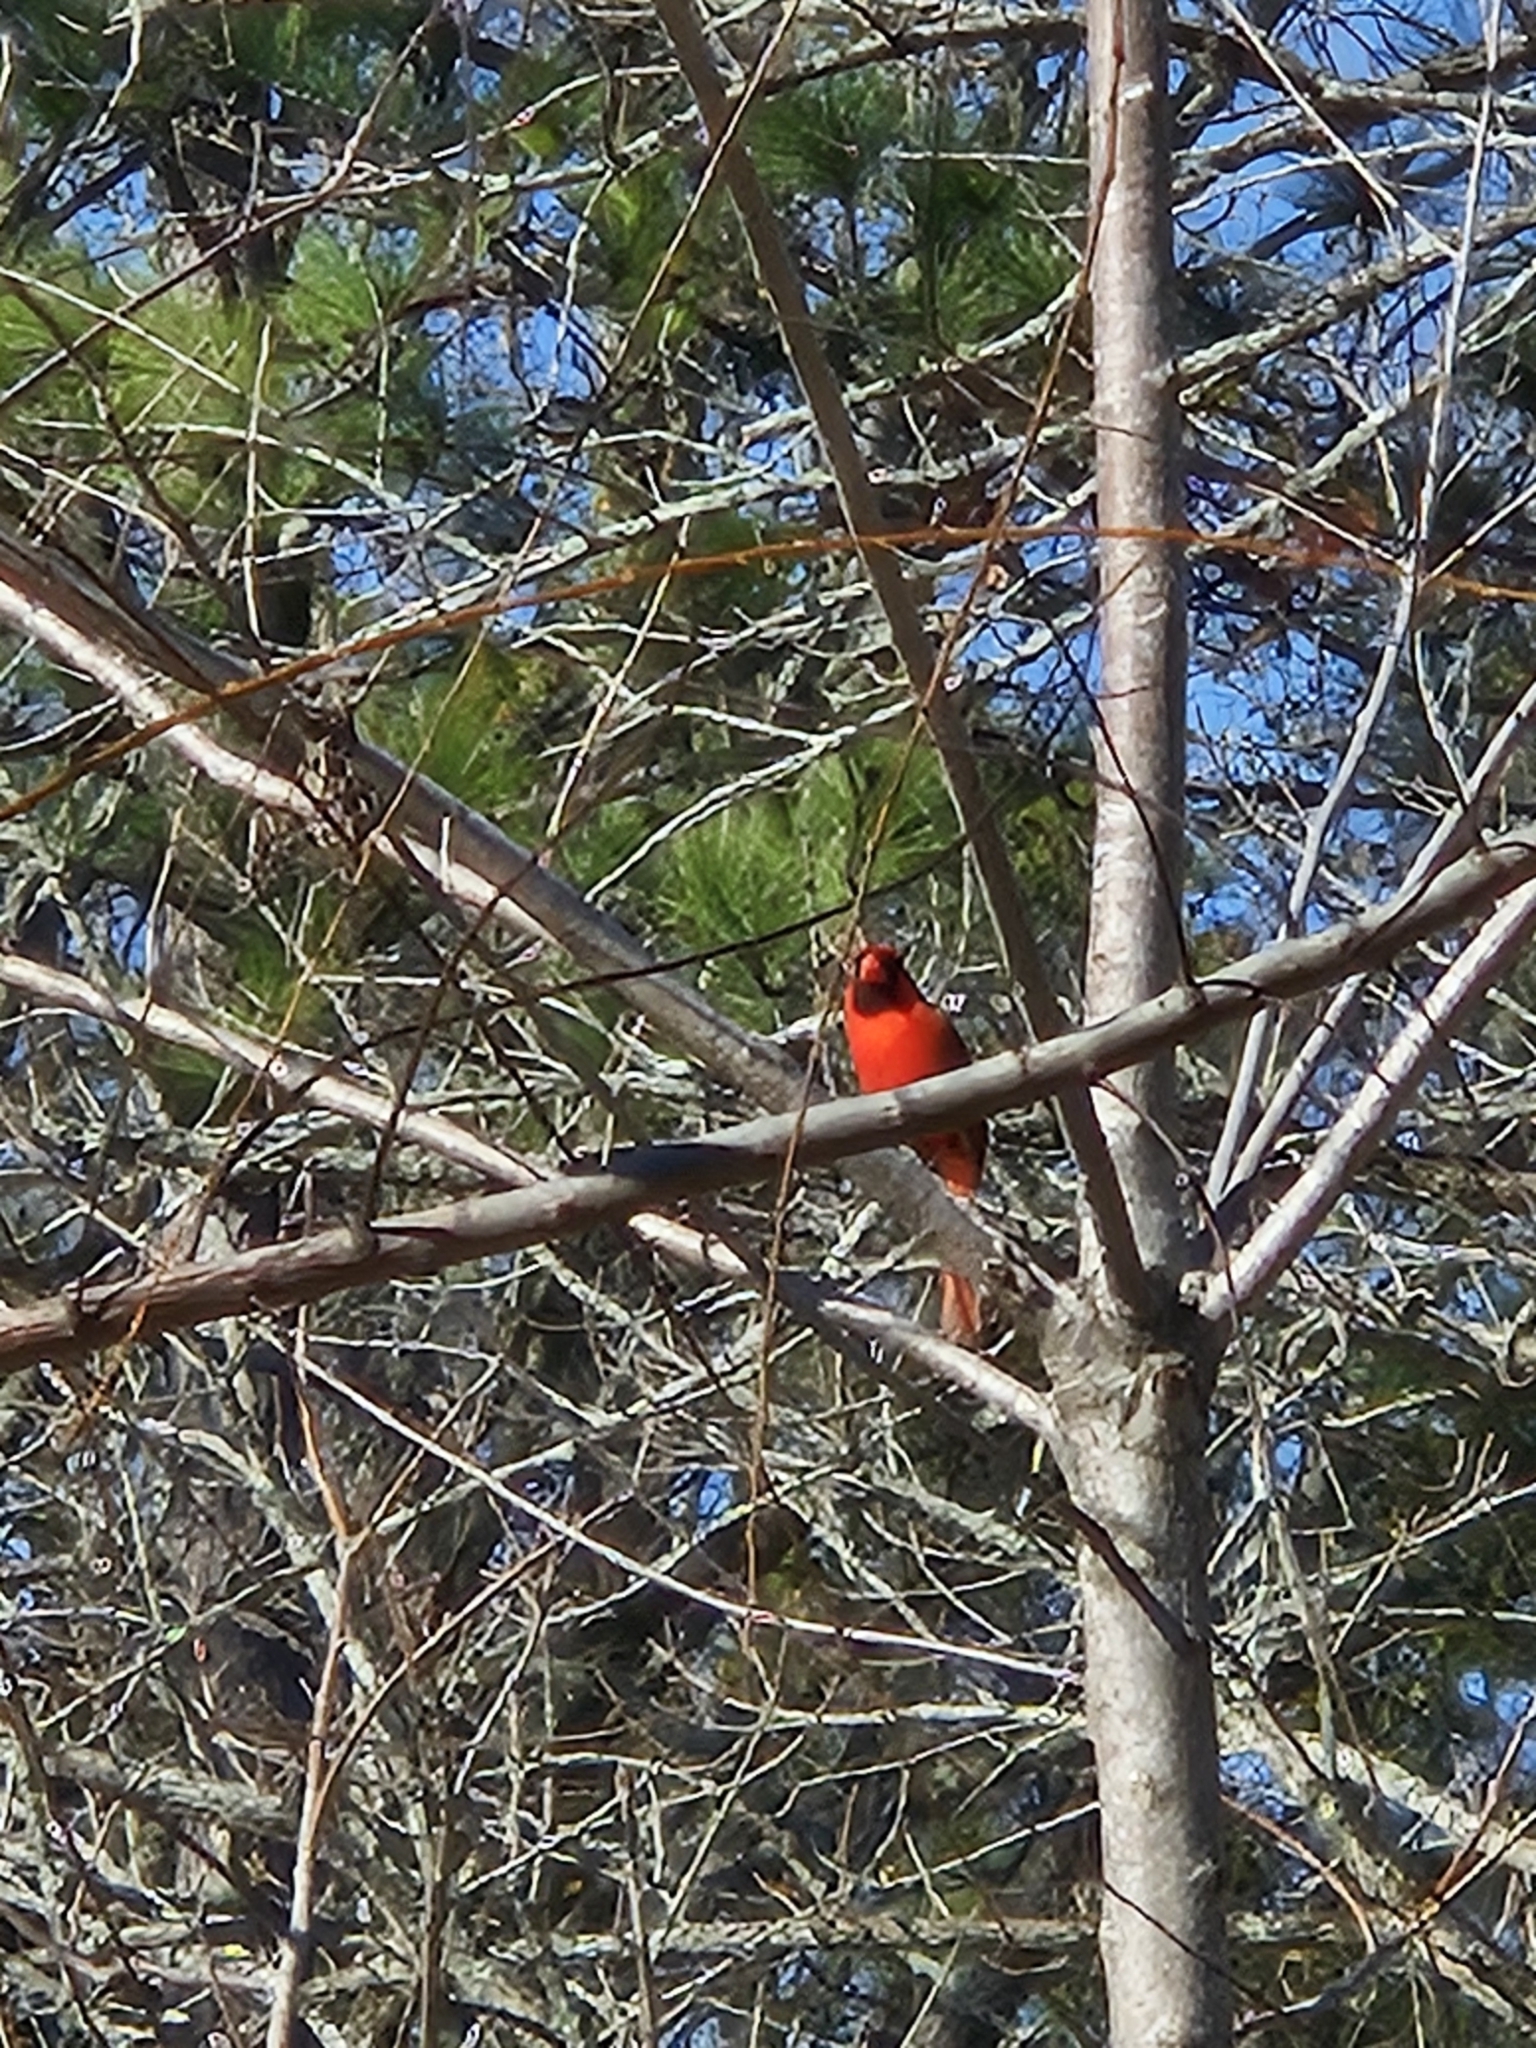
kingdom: Animalia
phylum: Chordata
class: Aves
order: Passeriformes
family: Cardinalidae
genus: Cardinalis
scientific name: Cardinalis cardinalis
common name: Northern cardinal
